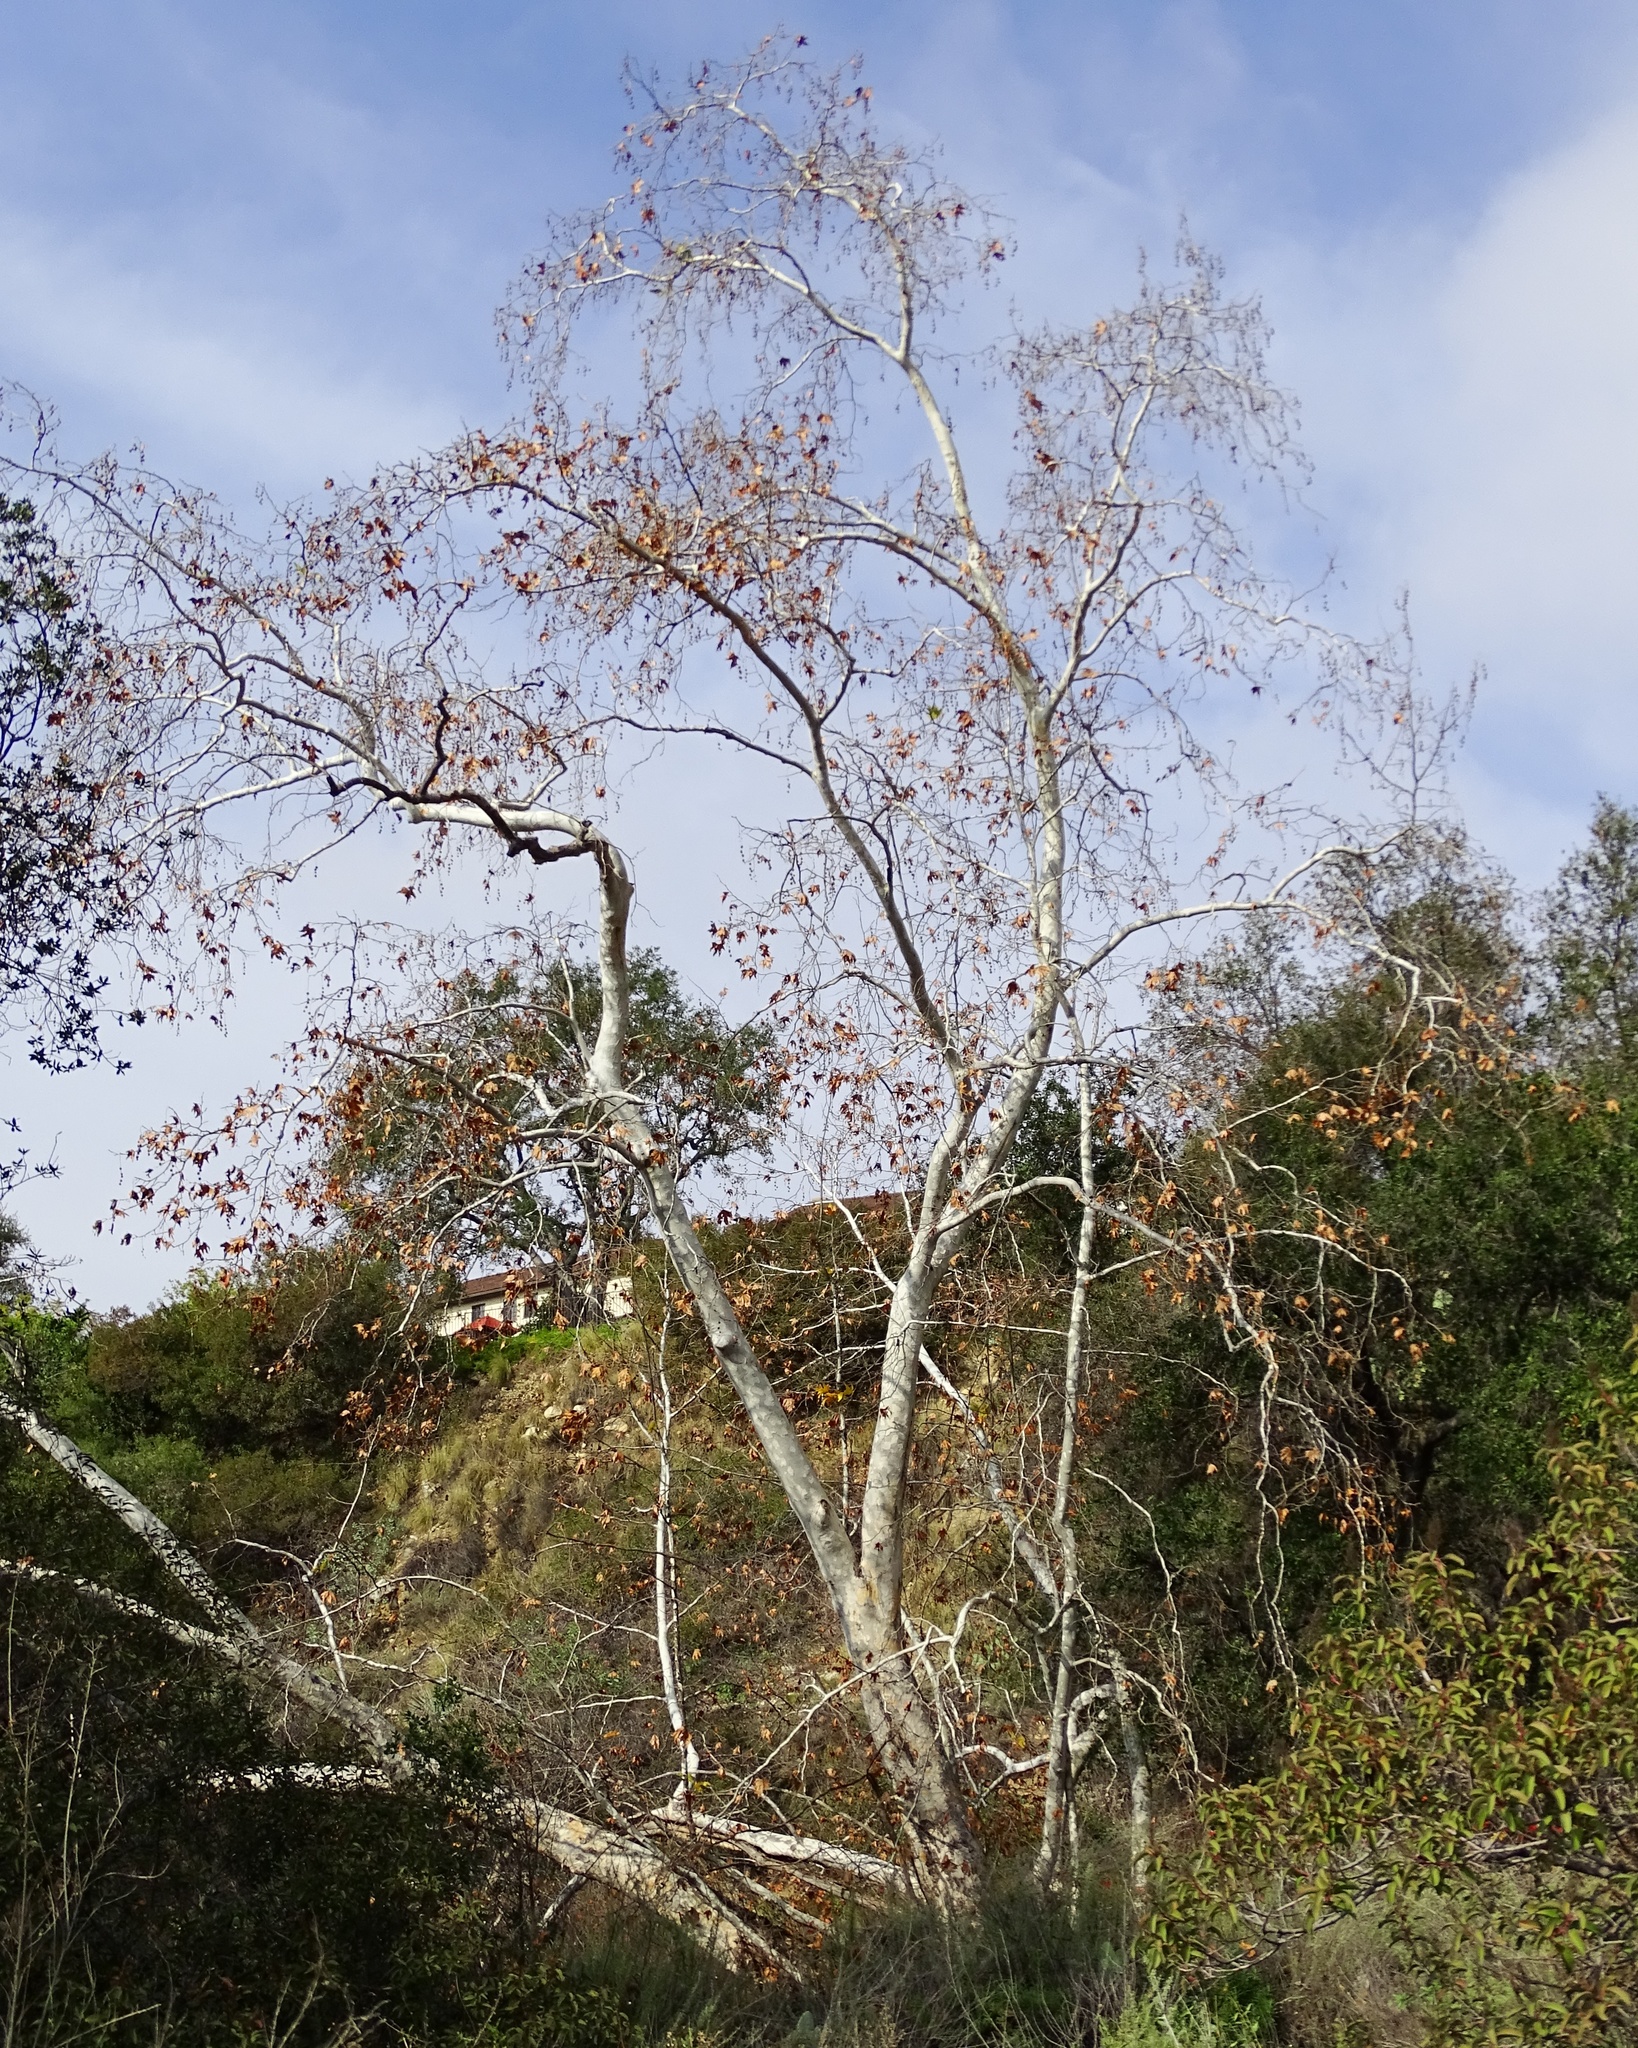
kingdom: Plantae
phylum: Tracheophyta
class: Magnoliopsida
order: Proteales
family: Platanaceae
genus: Platanus
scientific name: Platanus racemosa
